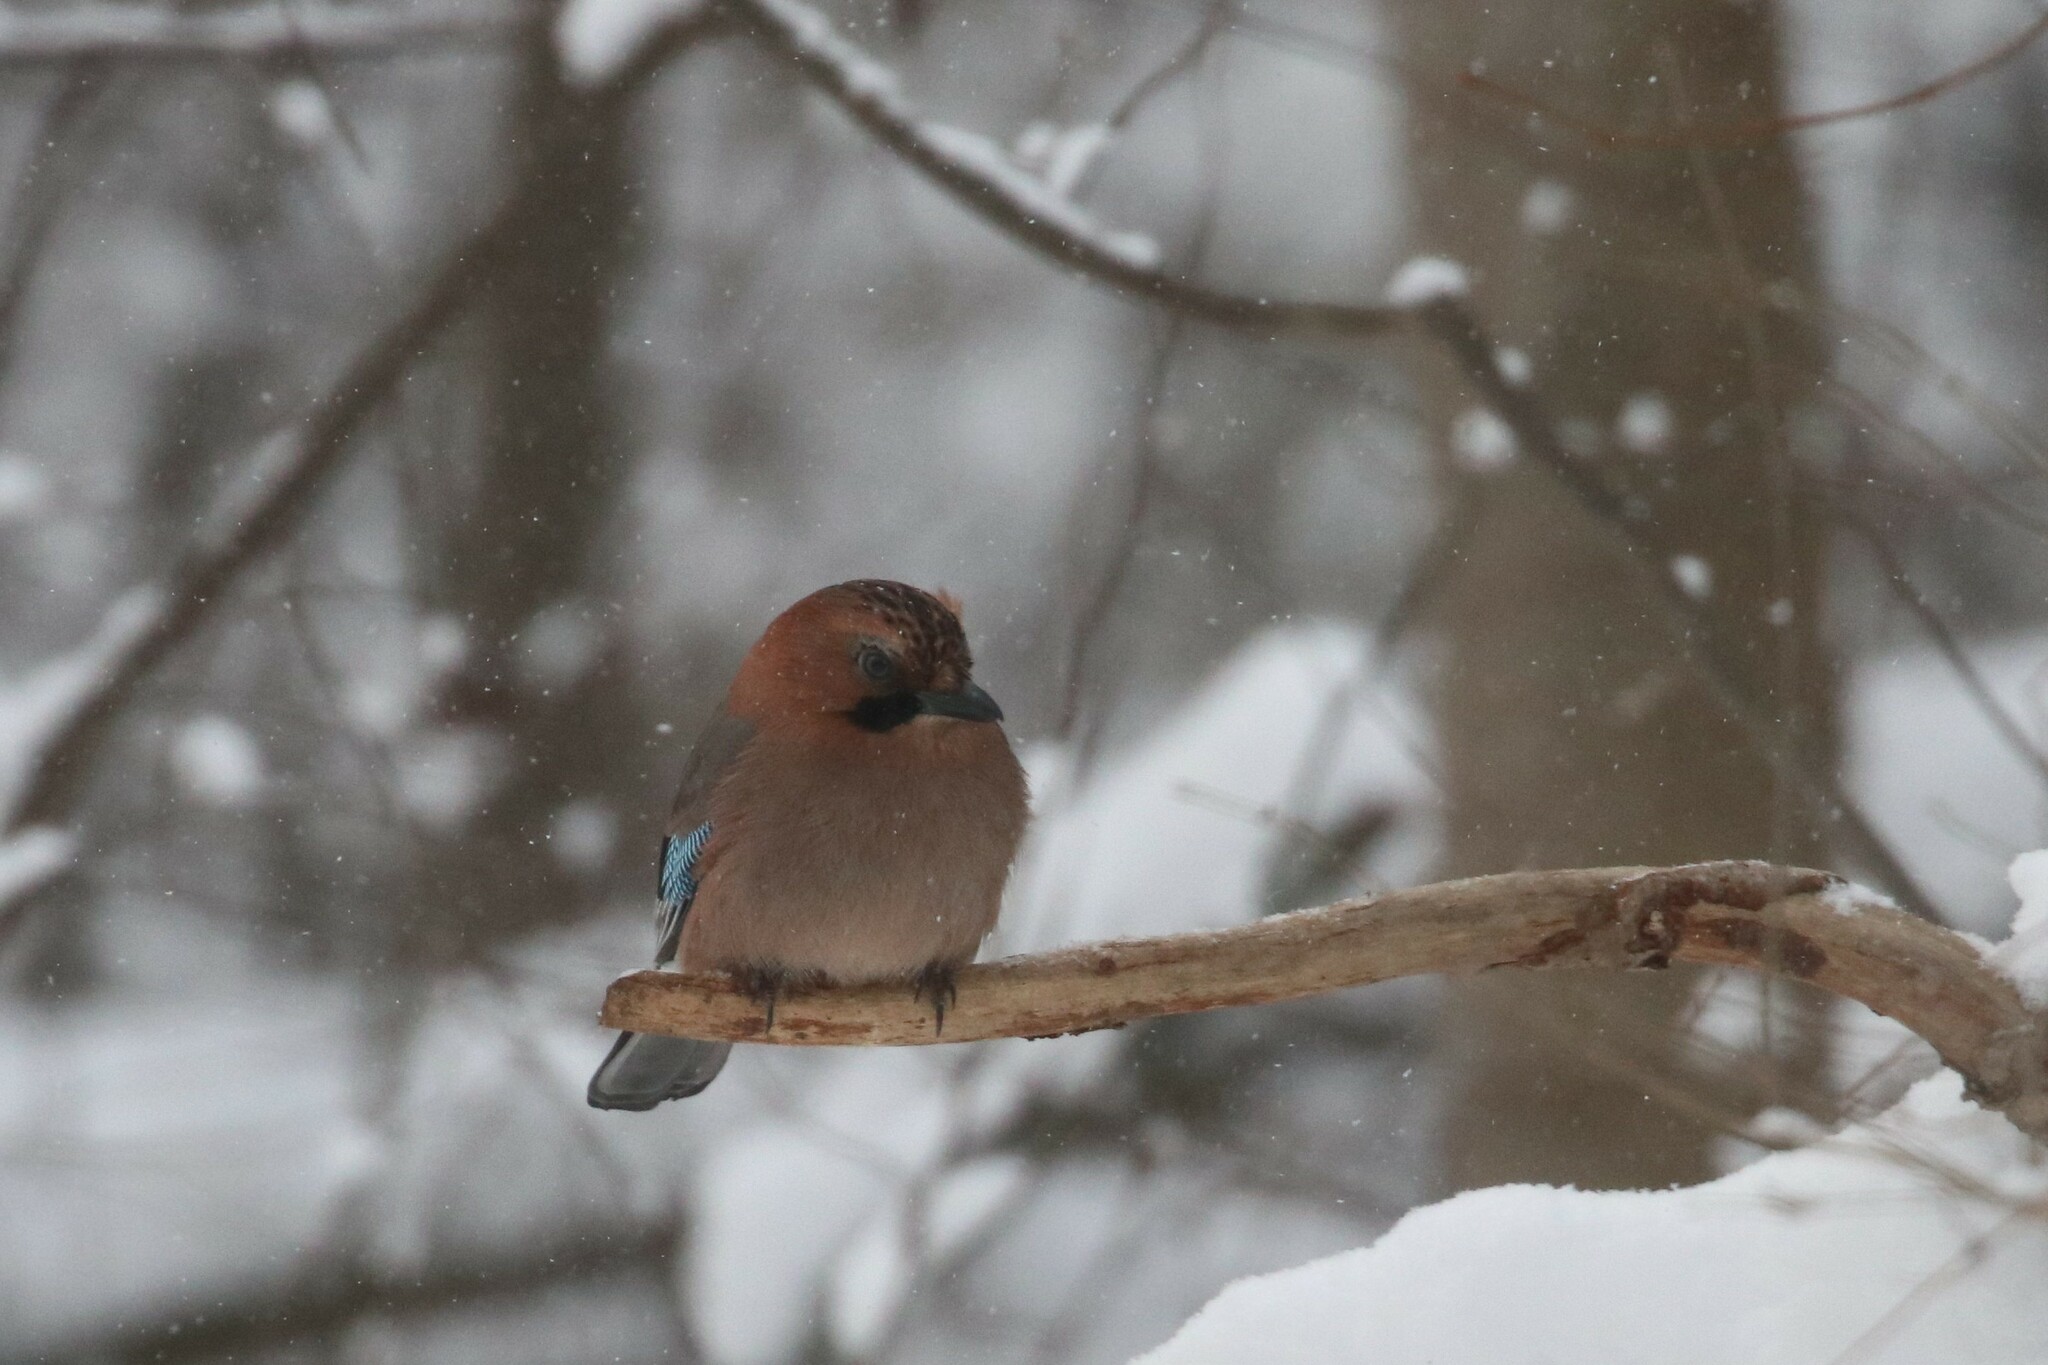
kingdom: Animalia
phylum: Chordata
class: Aves
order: Passeriformes
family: Corvidae
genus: Garrulus
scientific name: Garrulus glandarius
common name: Eurasian jay
